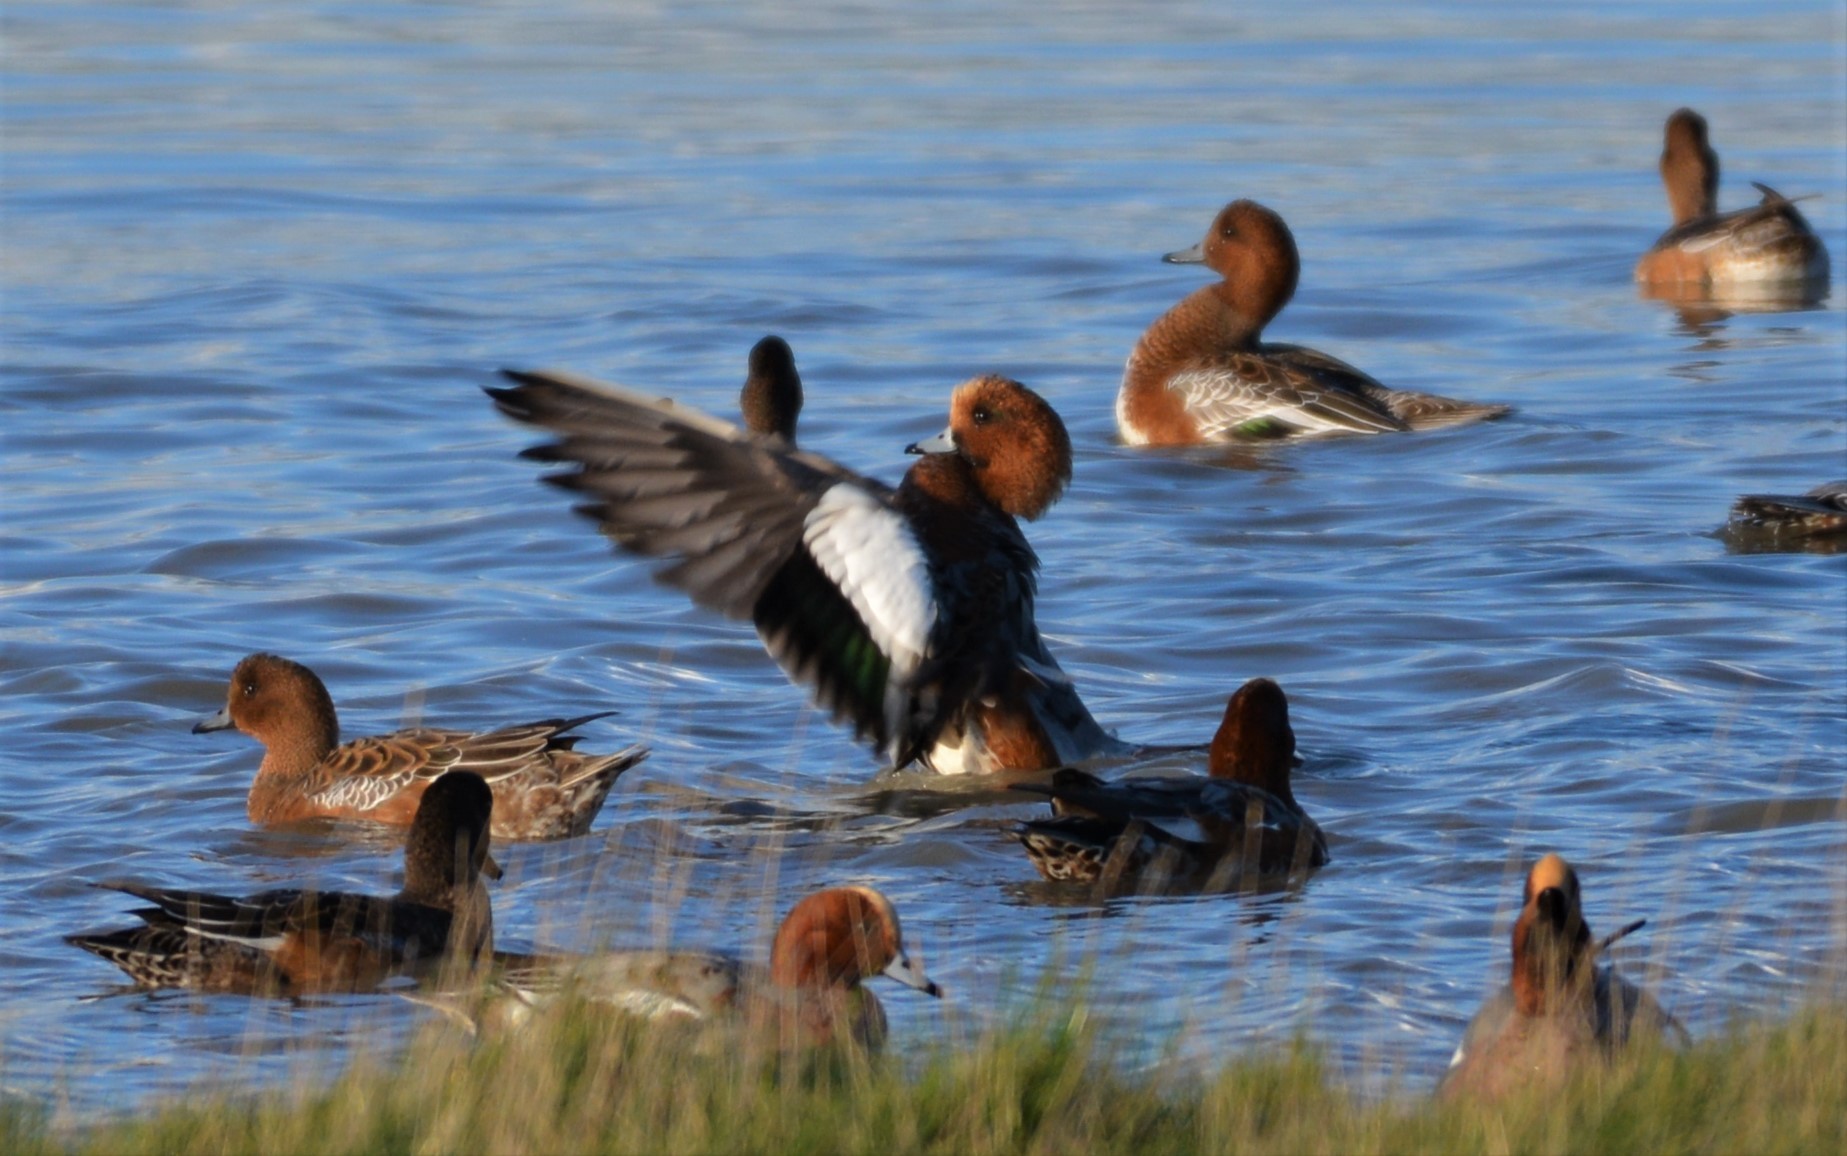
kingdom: Animalia
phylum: Chordata
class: Aves
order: Anseriformes
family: Anatidae
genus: Mareca
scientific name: Mareca penelope
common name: Eurasian wigeon
